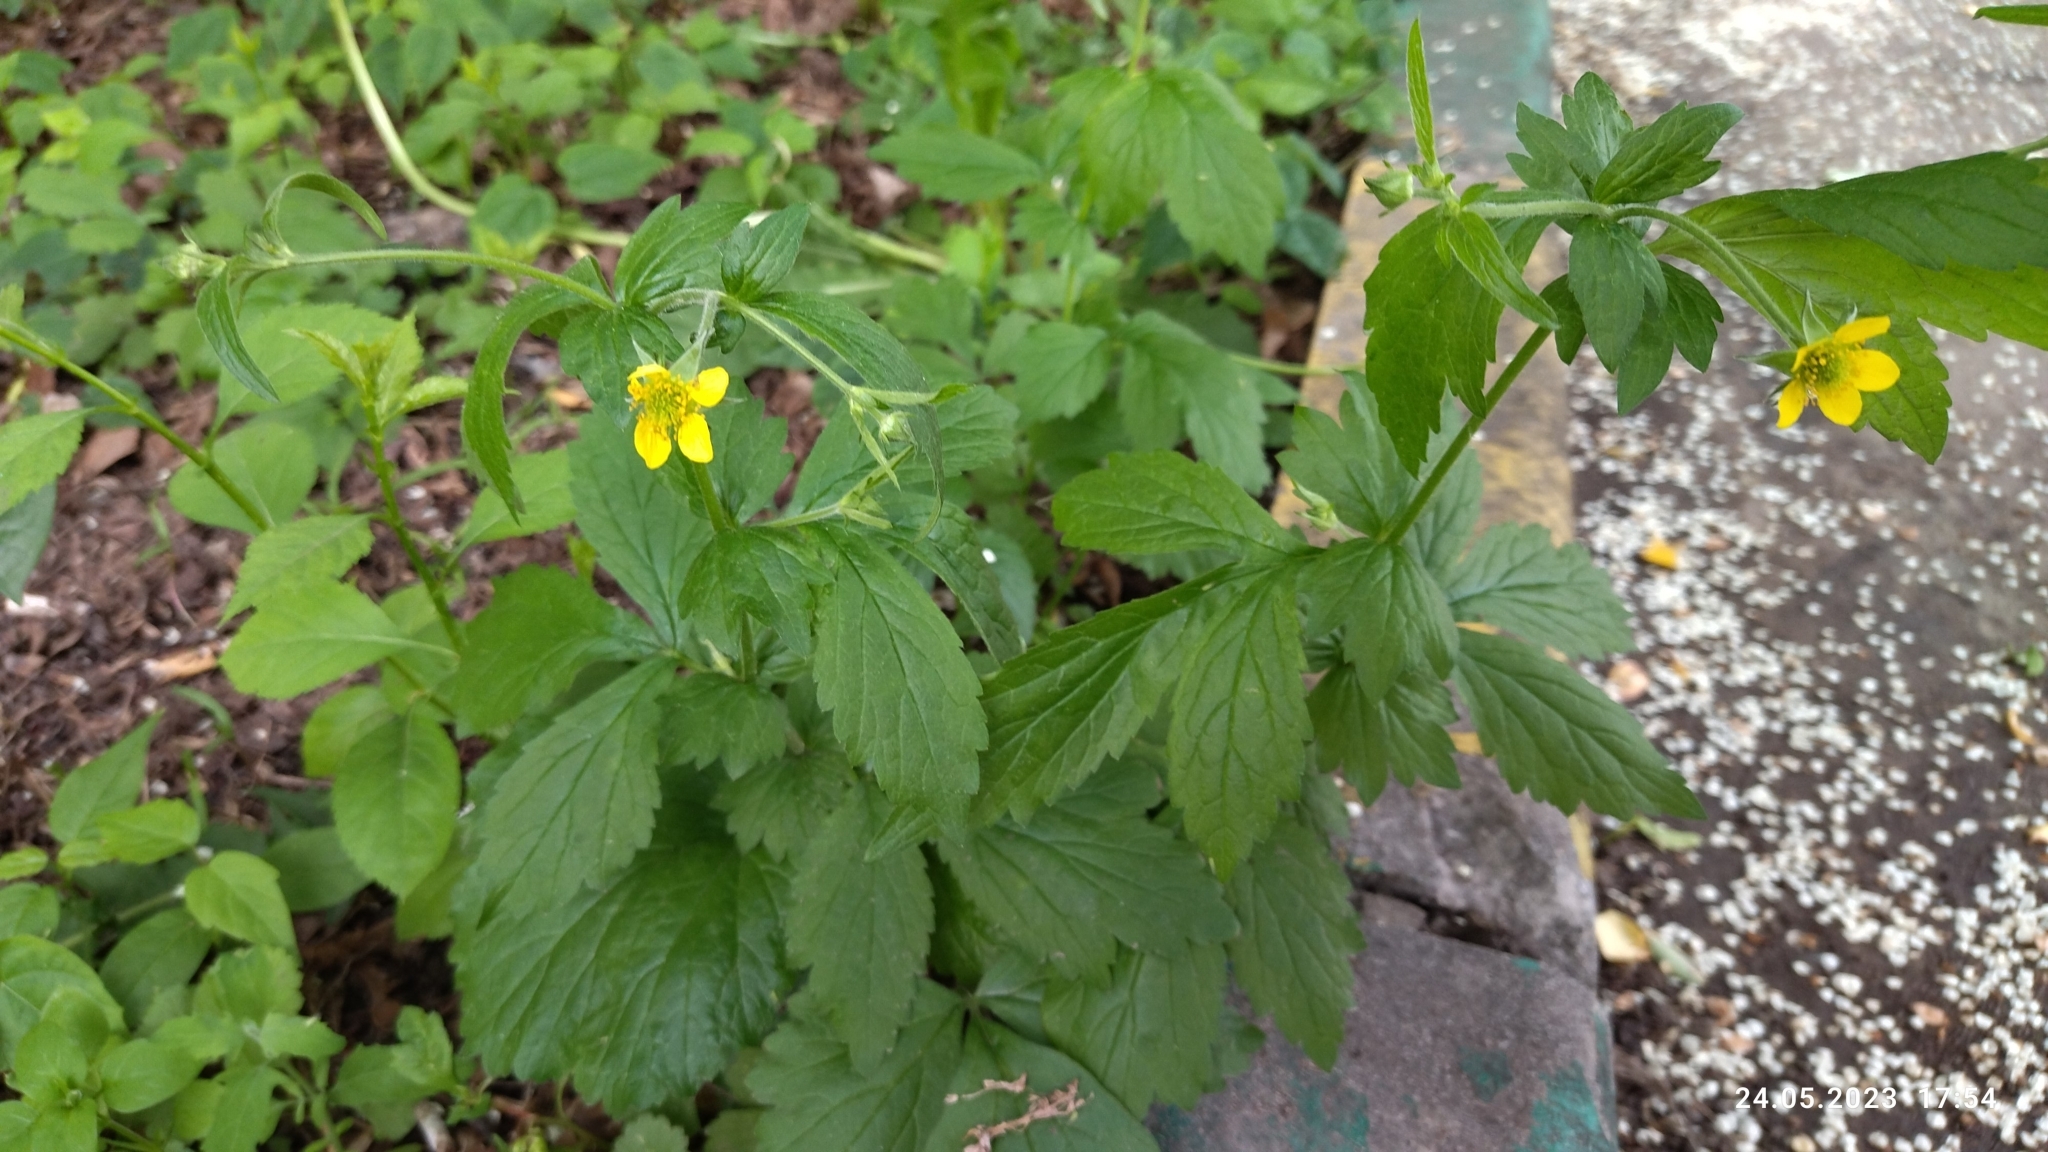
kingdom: Plantae
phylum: Tracheophyta
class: Magnoliopsida
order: Rosales
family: Rosaceae
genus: Geum
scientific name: Geum urbanum
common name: Wood avens
